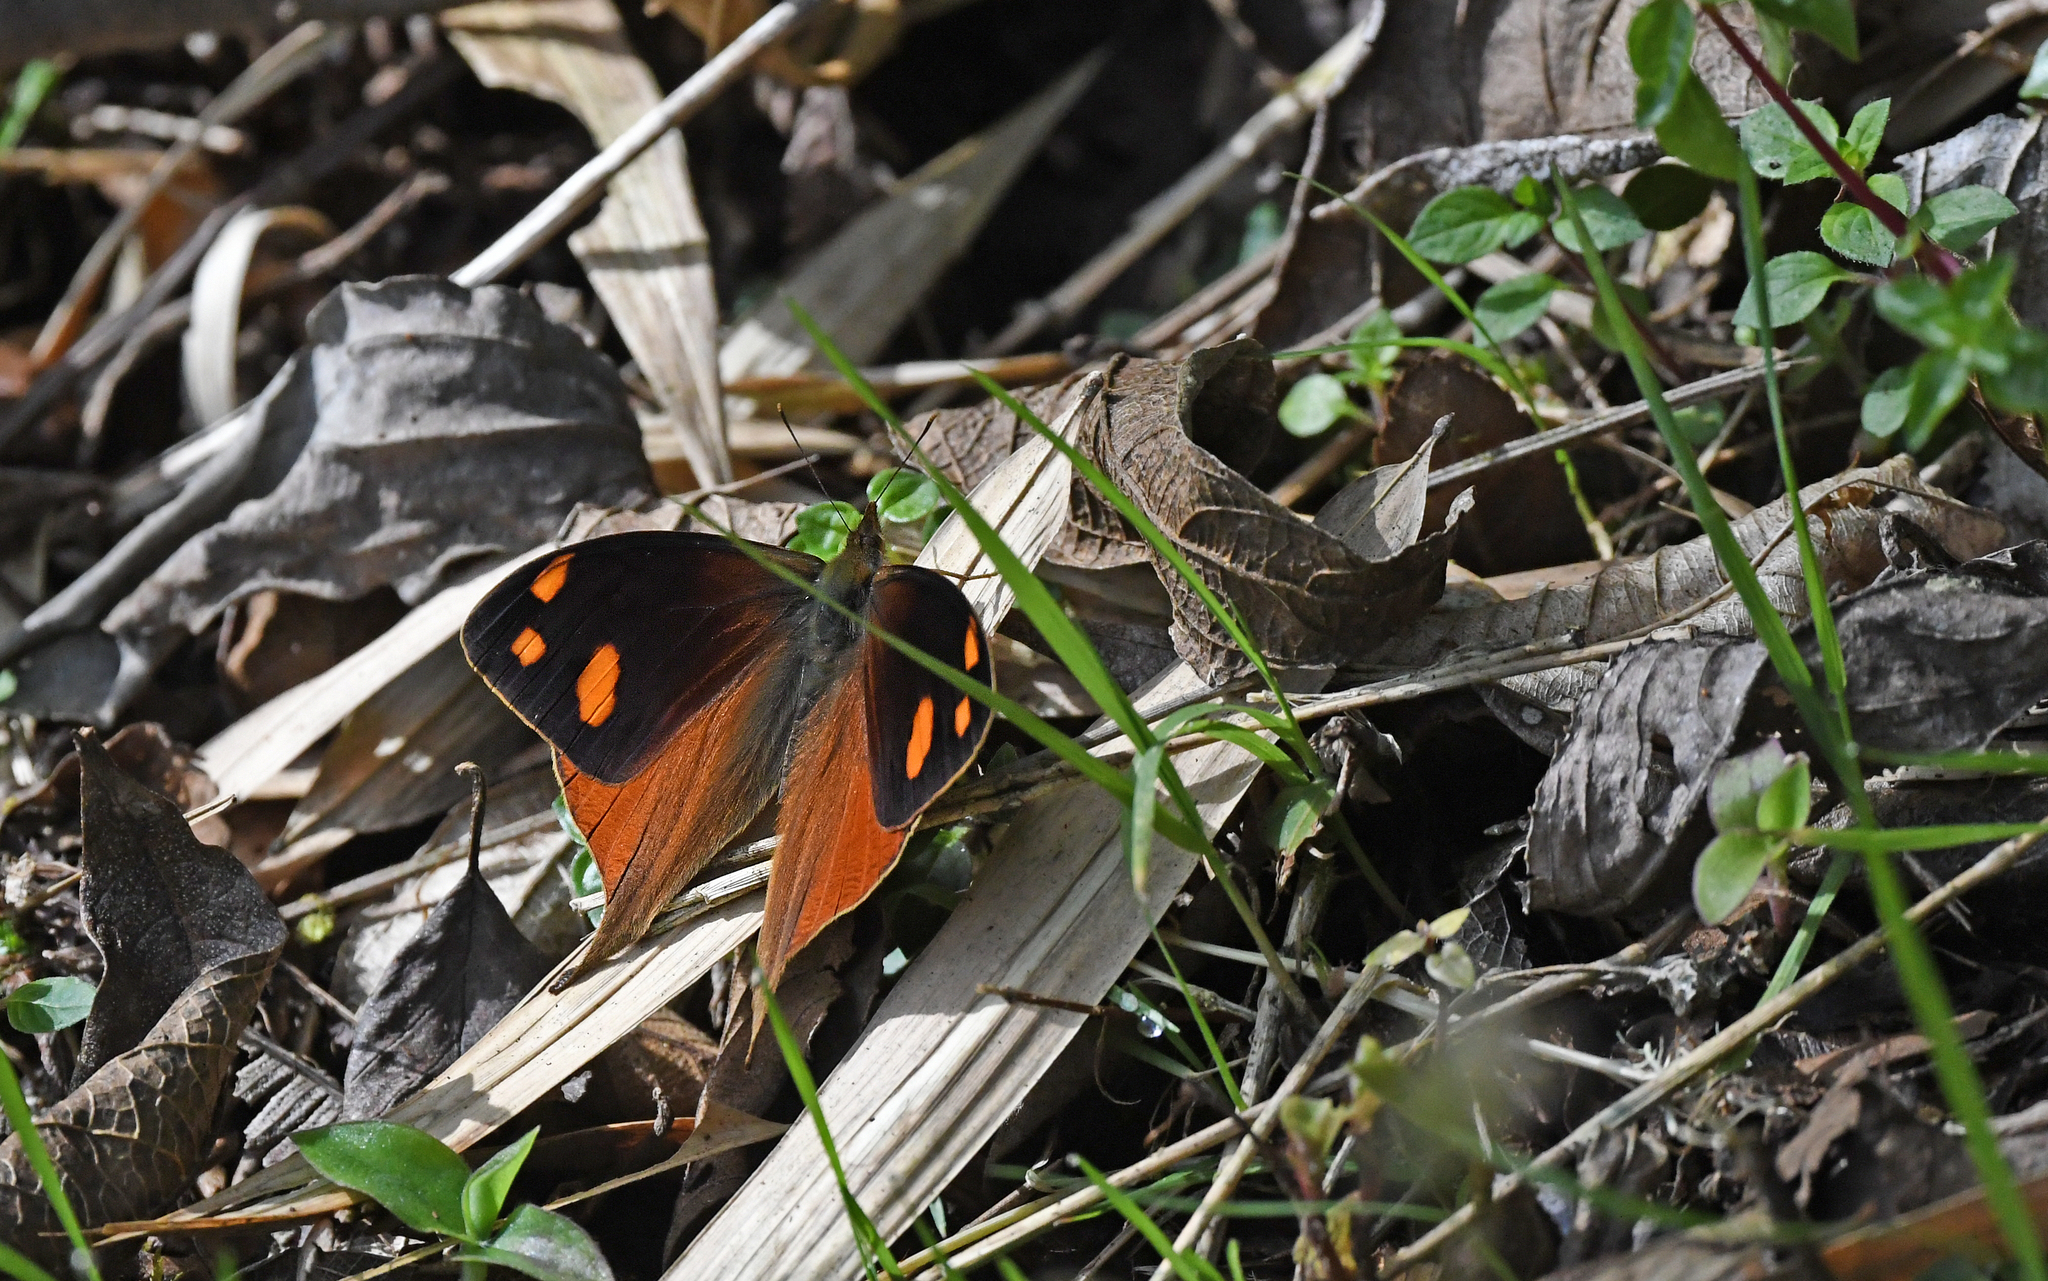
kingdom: Animalia
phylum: Arthropoda
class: Insecta
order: Lepidoptera
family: Nymphalidae
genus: Corades
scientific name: Corades chelonis
